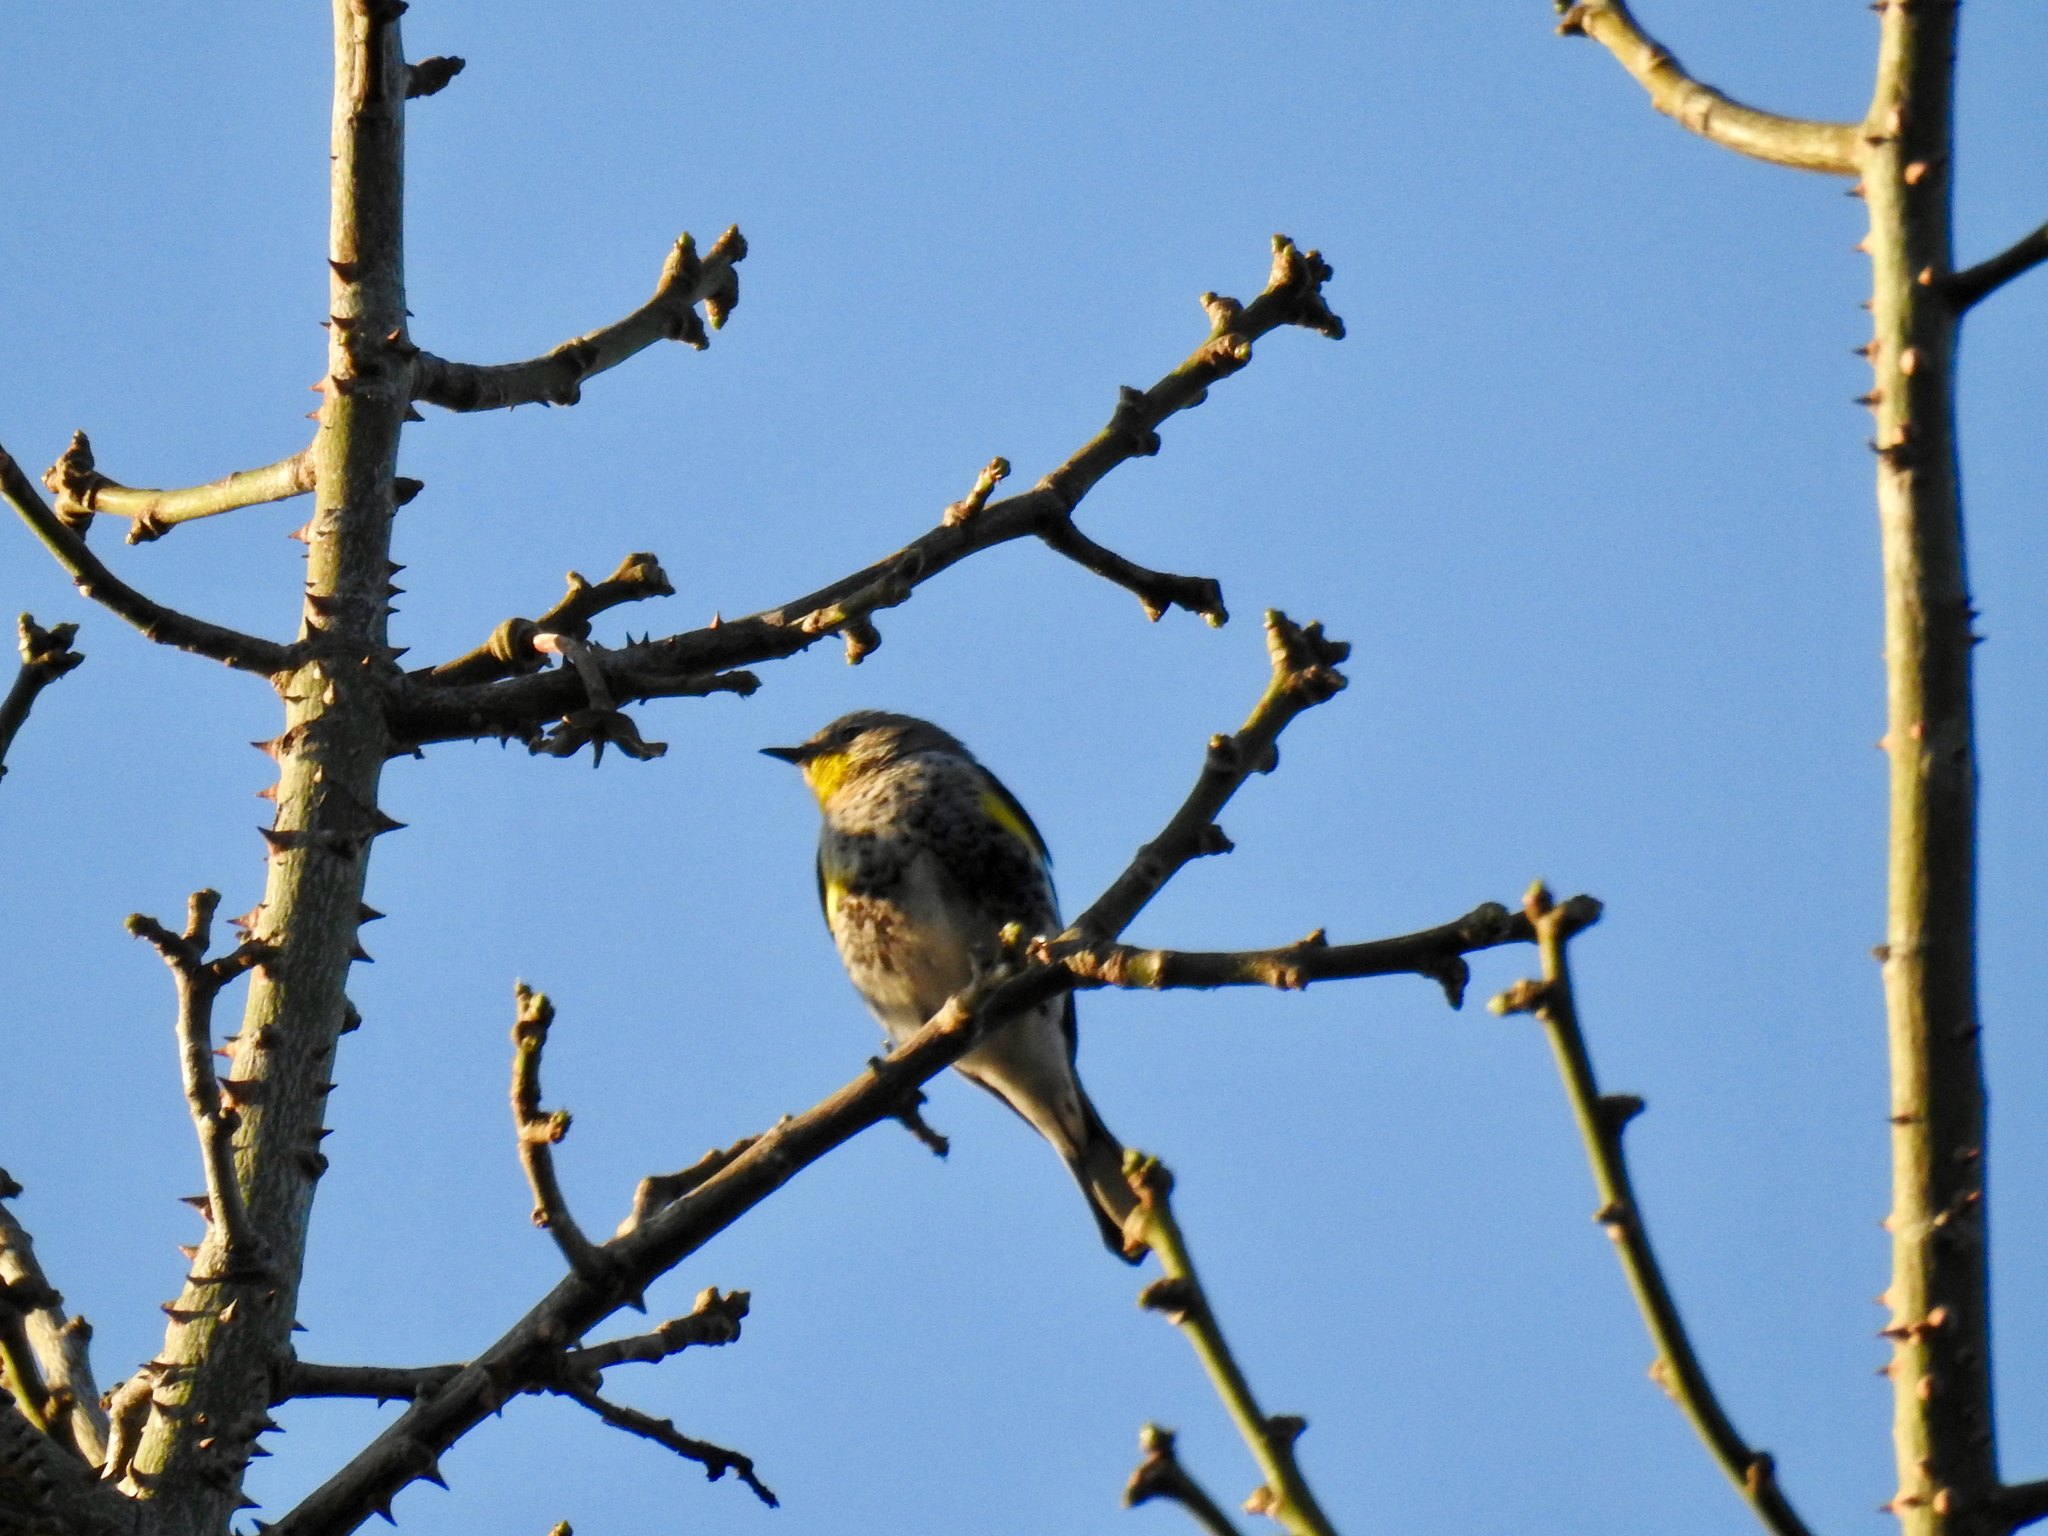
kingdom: Animalia
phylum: Chordata
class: Aves
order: Passeriformes
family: Parulidae
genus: Setophaga
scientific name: Setophaga coronata
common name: Myrtle warbler
